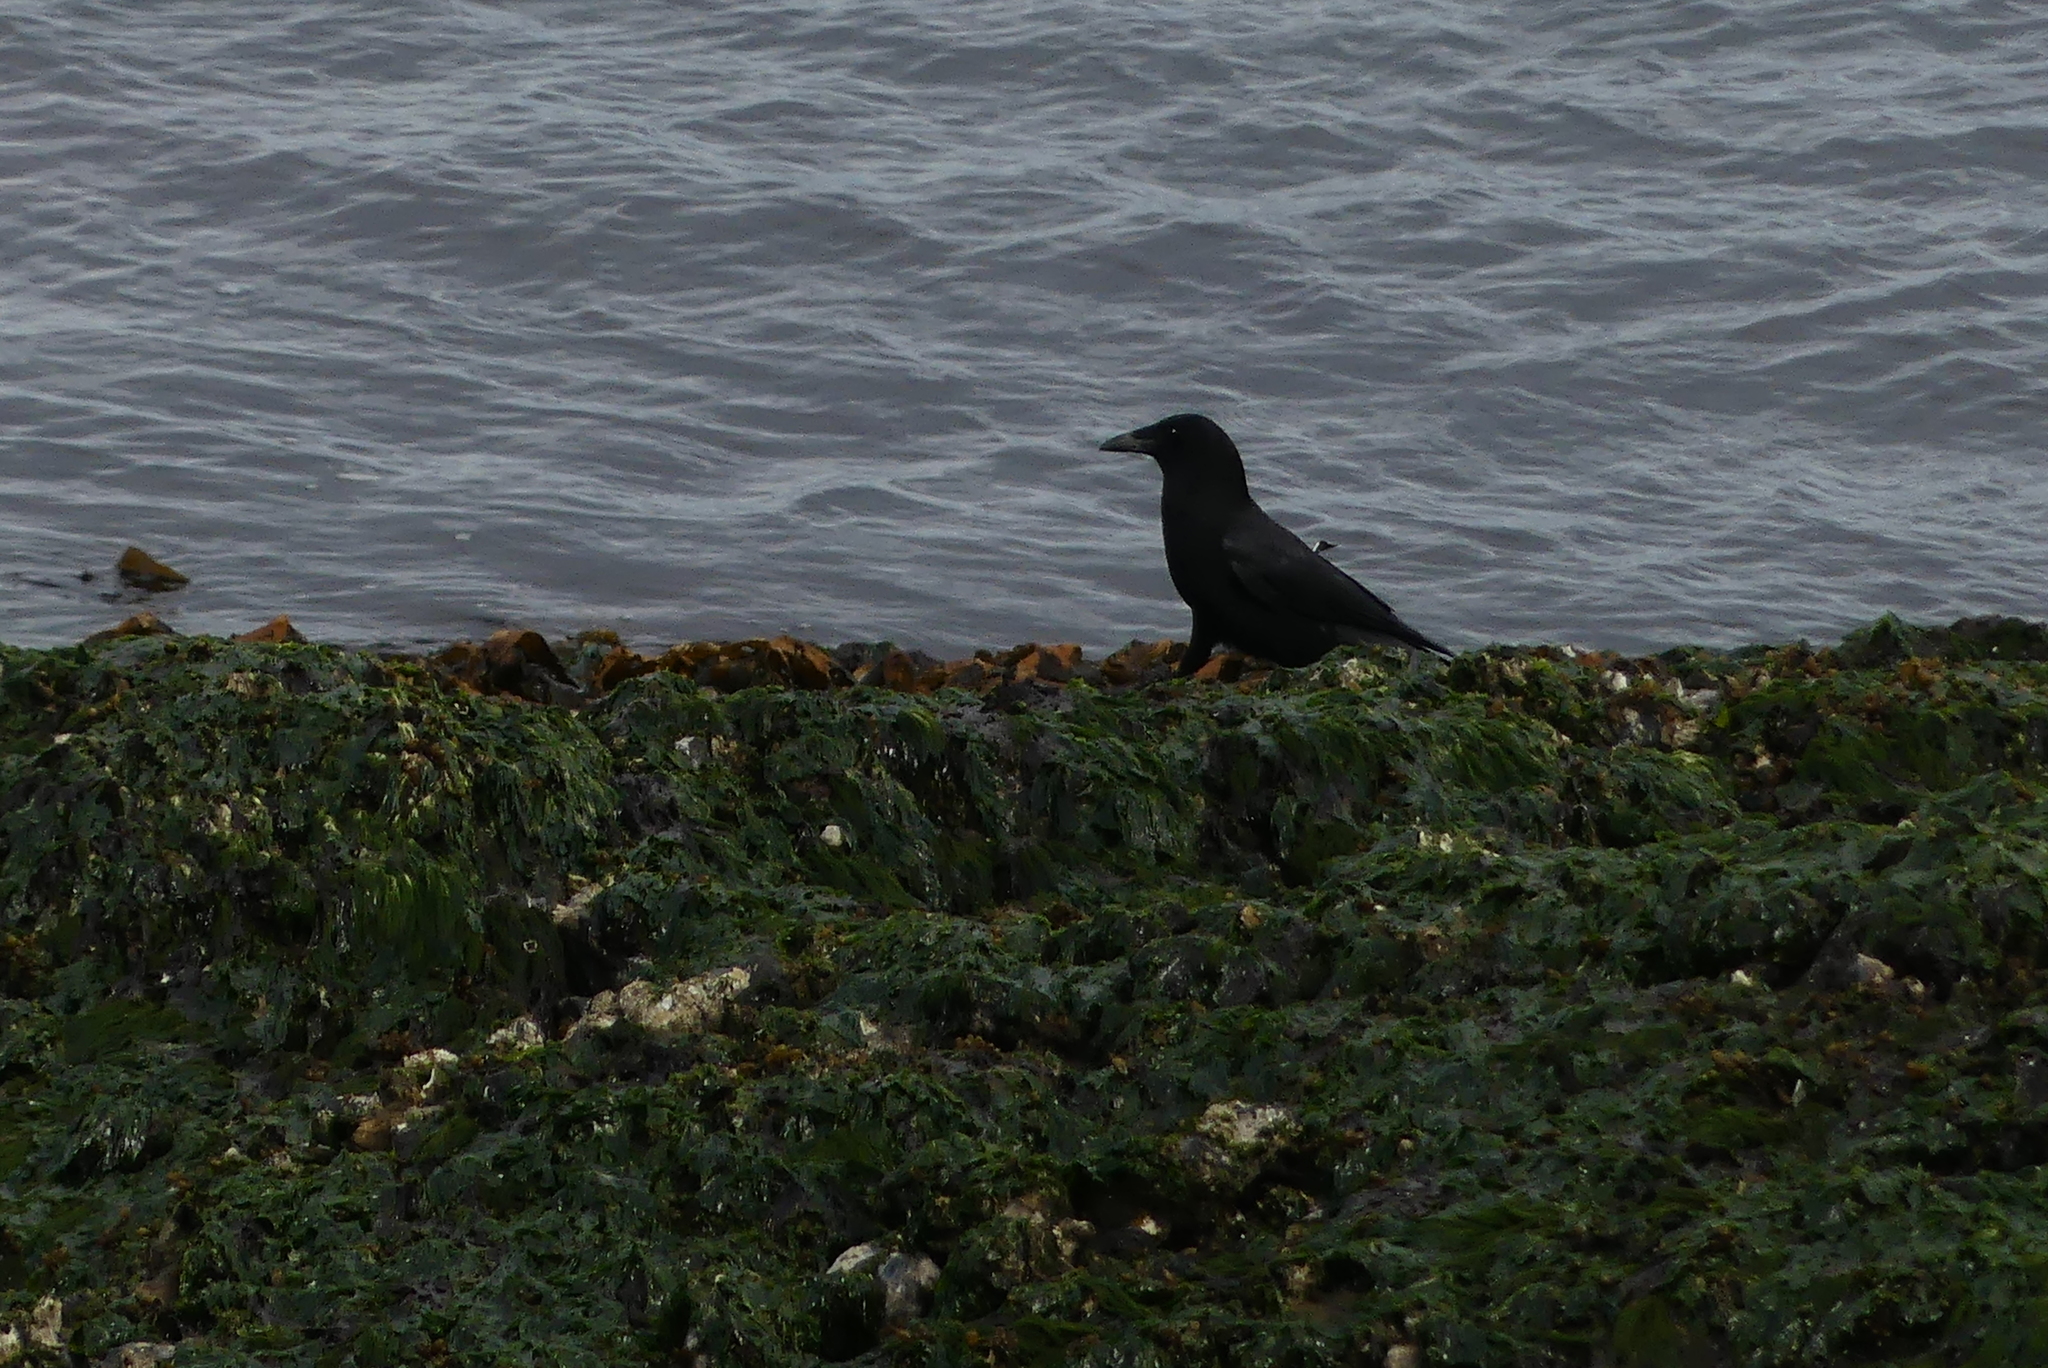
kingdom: Animalia
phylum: Chordata
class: Aves
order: Passeriformes
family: Corvidae
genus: Corvus
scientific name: Corvus brachyrhynchos
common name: American crow
